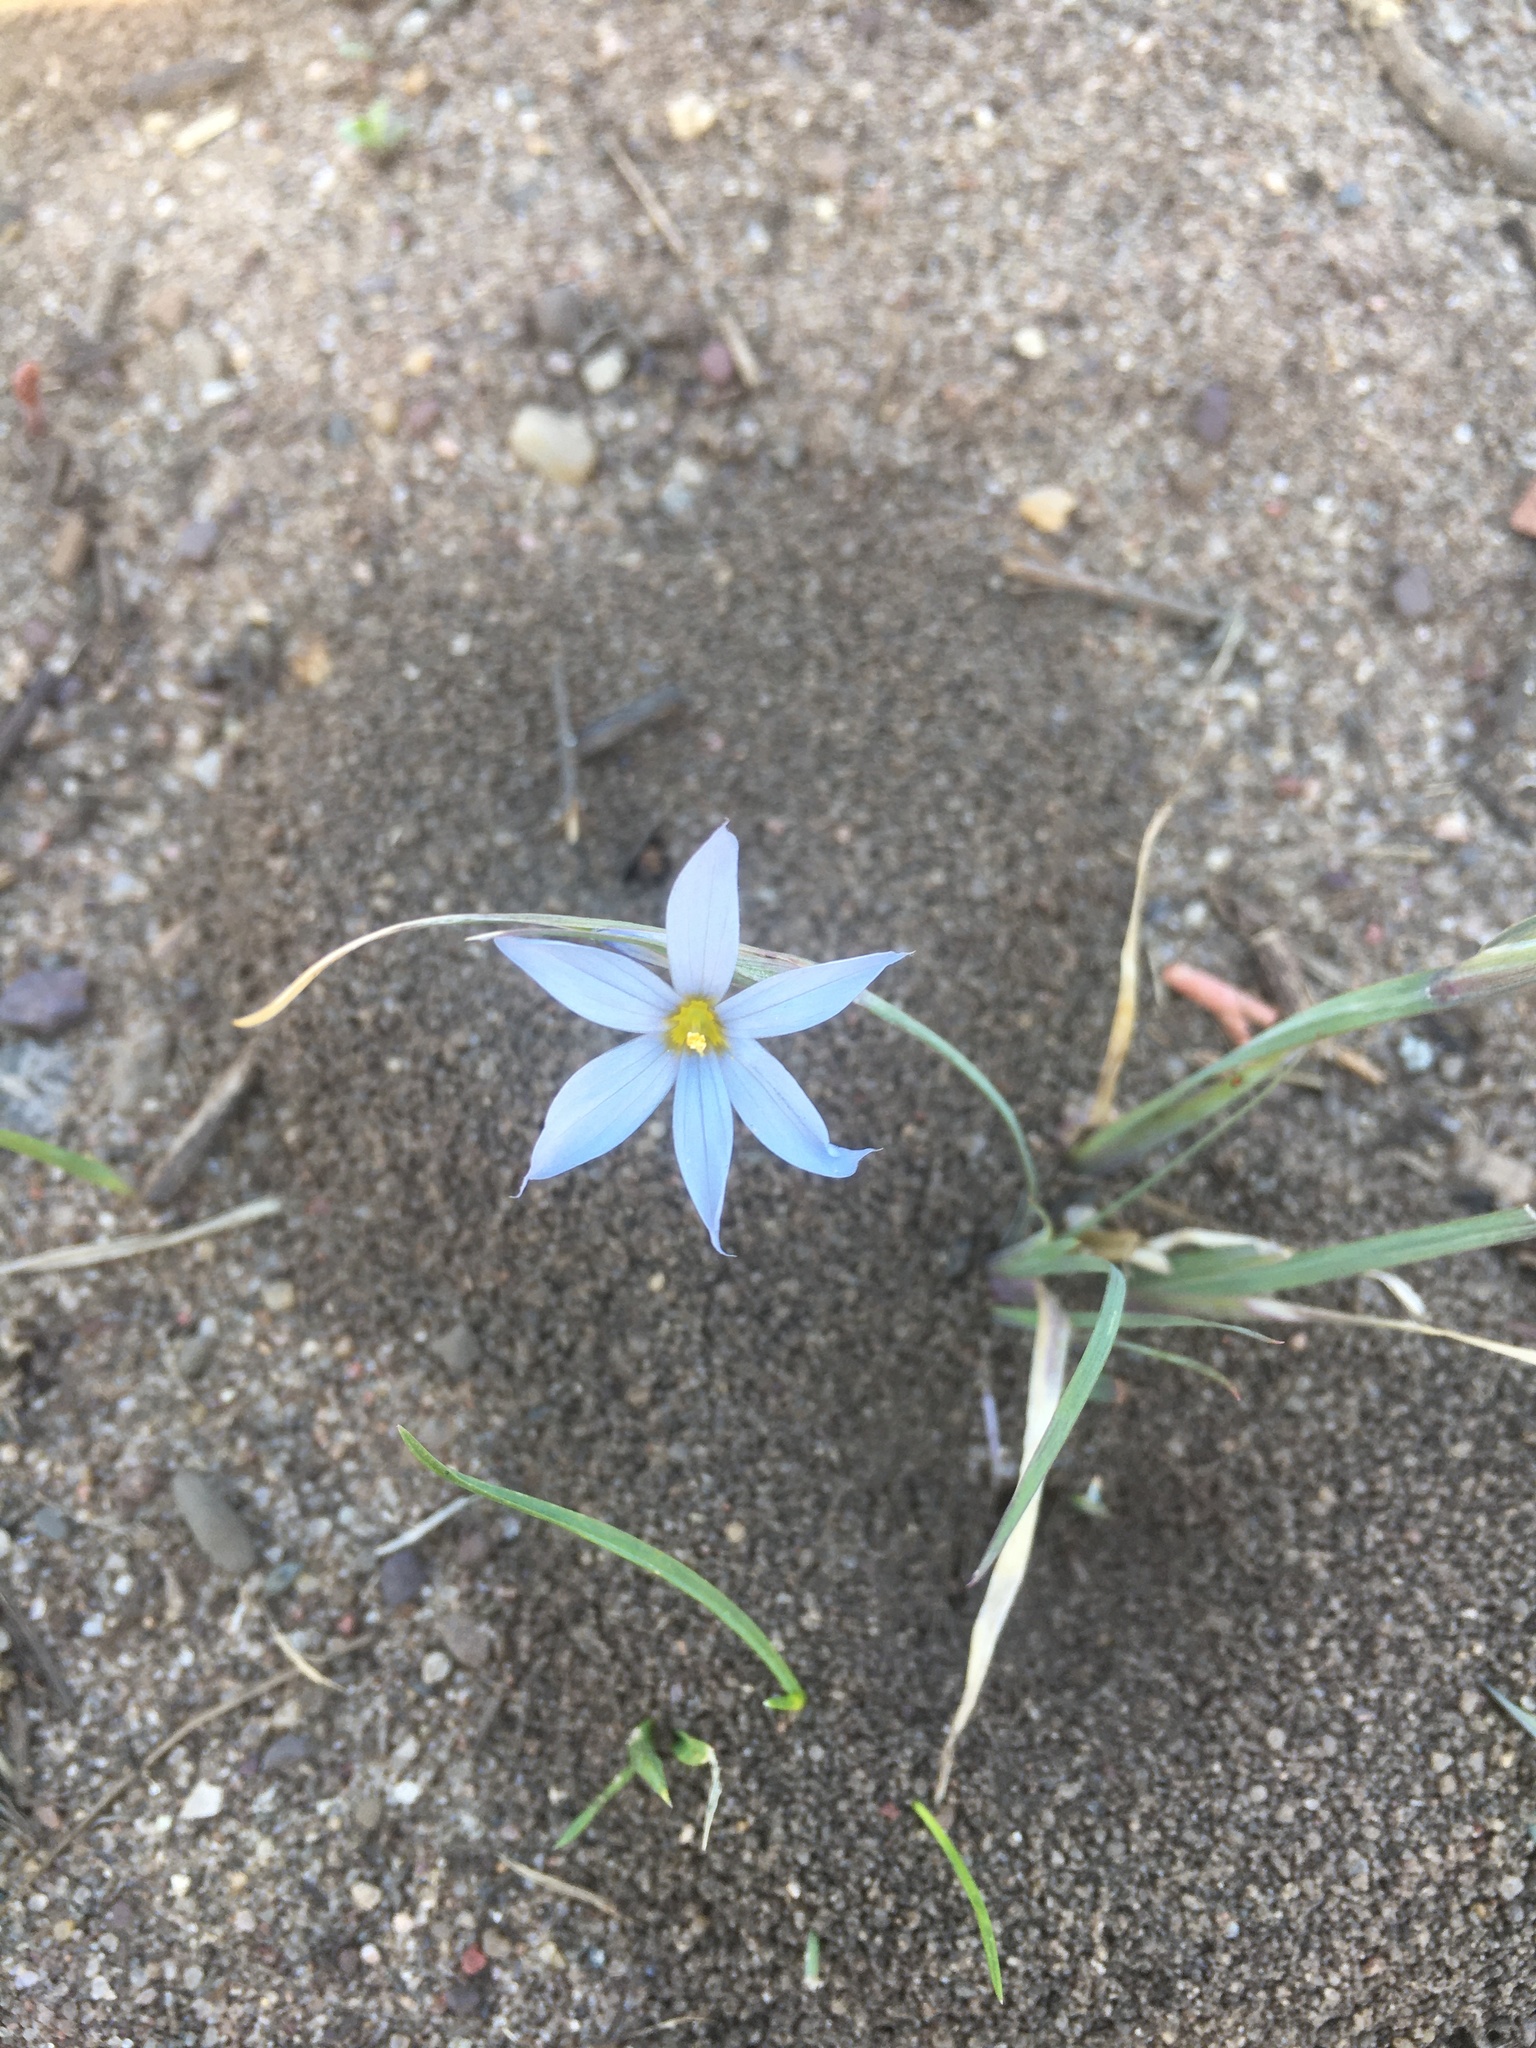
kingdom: Plantae
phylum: Tracheophyta
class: Liliopsida
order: Asparagales
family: Iridaceae
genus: Sisyrinchium
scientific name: Sisyrinchium campestre
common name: Prairie blue-eyed-grass
